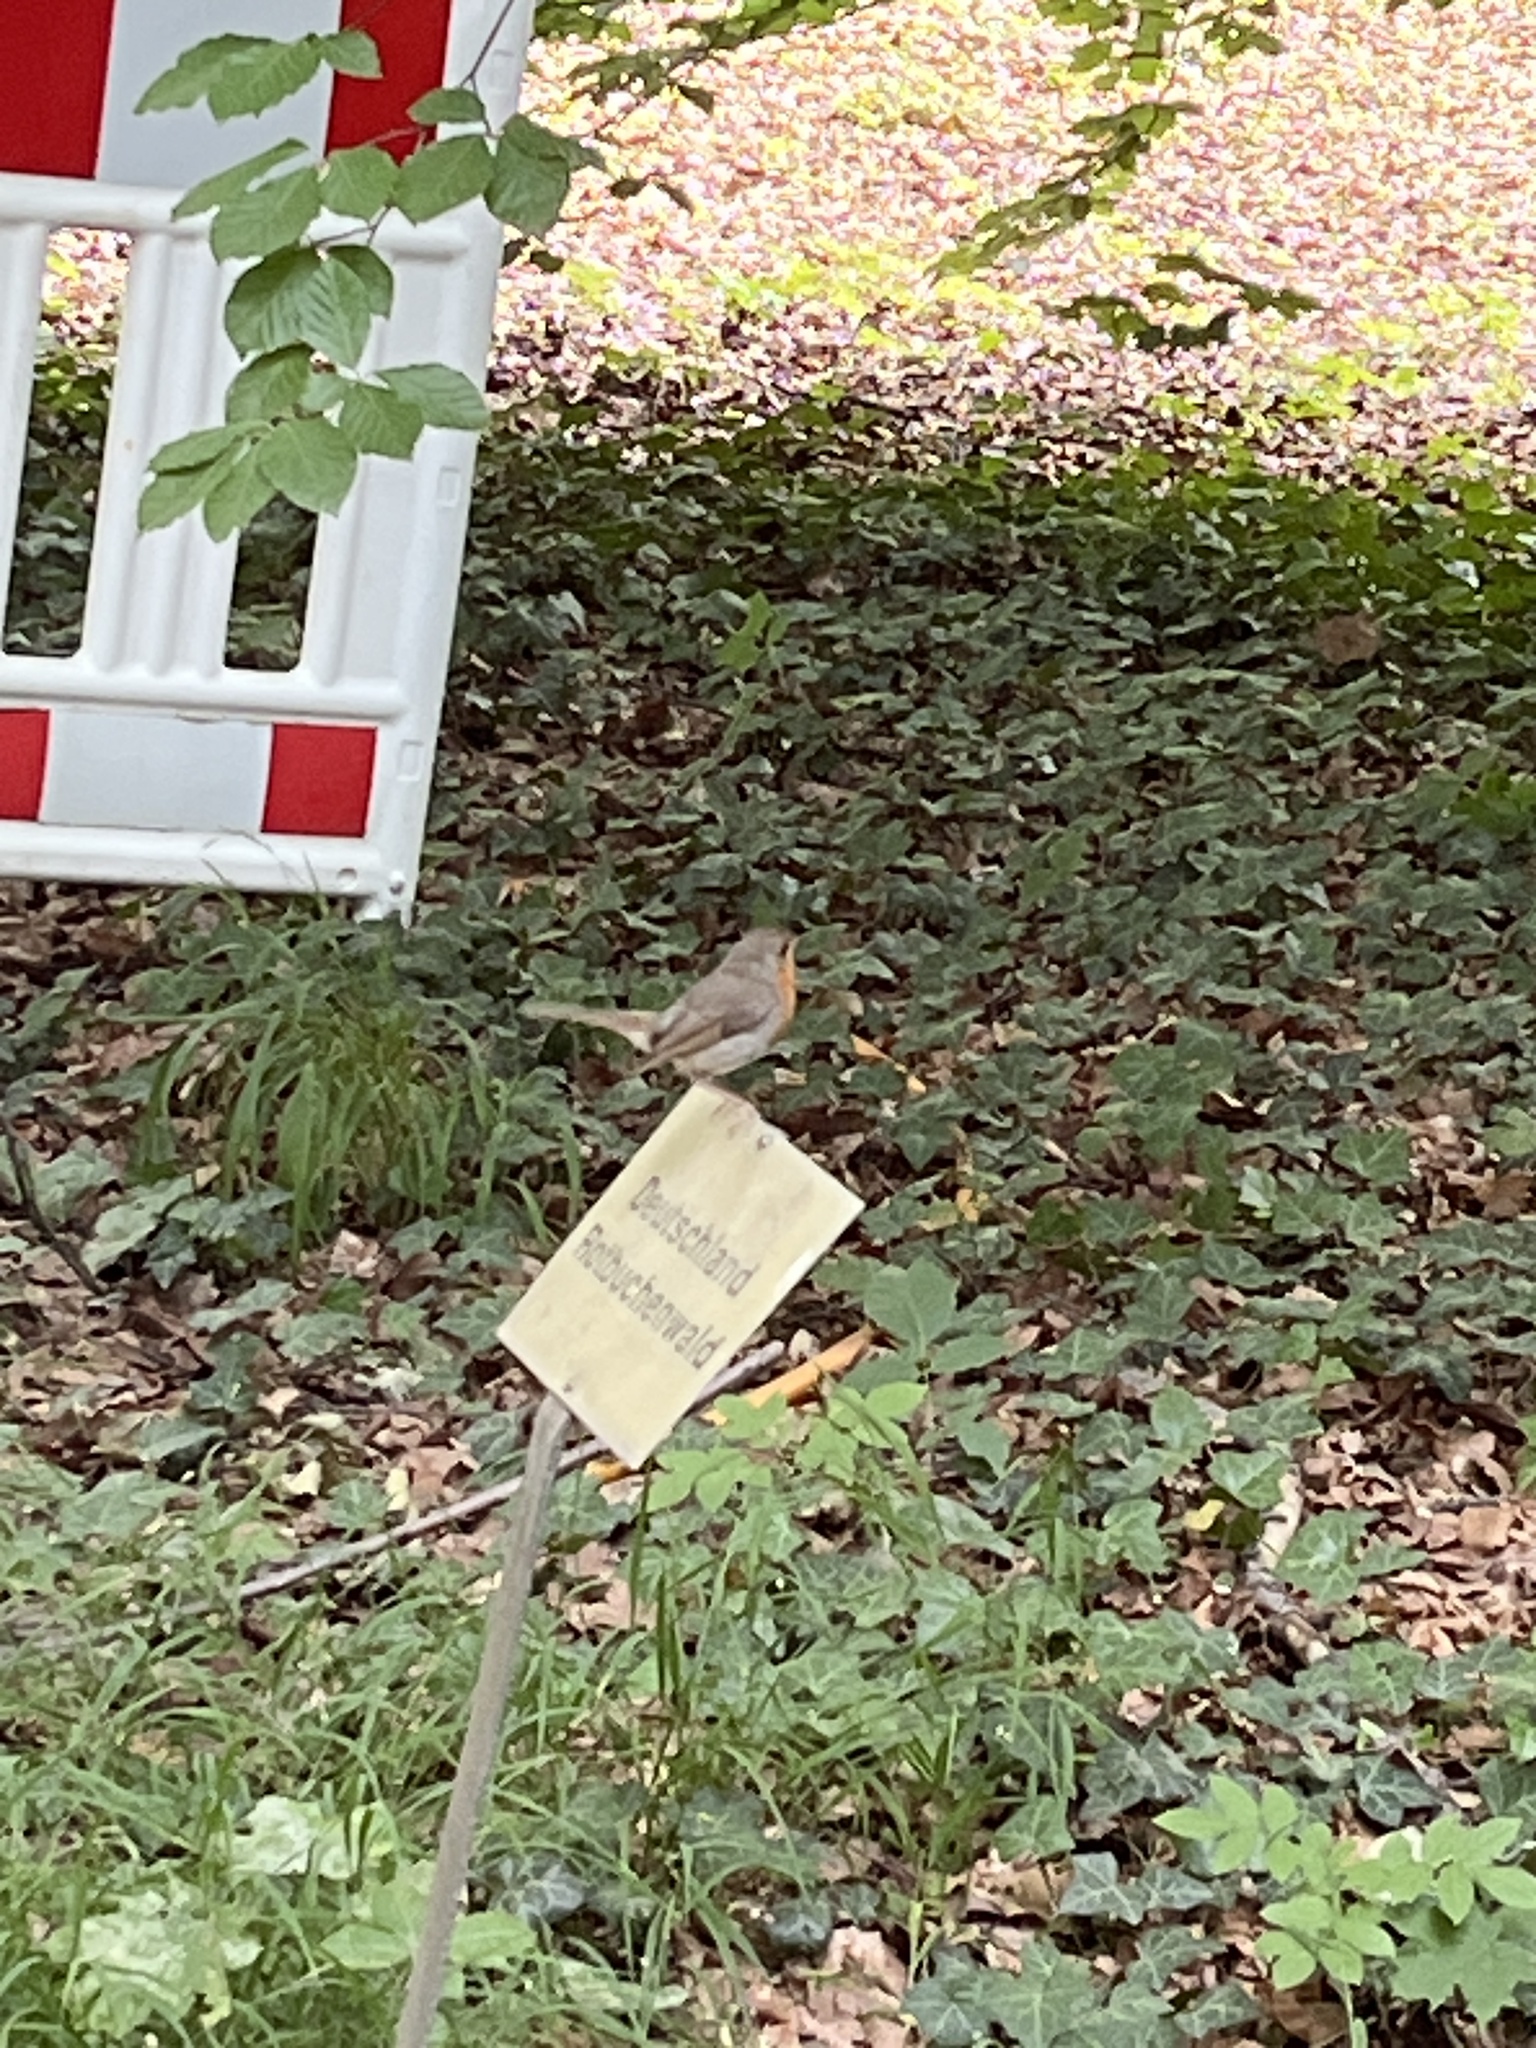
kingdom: Animalia
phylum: Chordata
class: Aves
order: Passeriformes
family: Muscicapidae
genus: Erithacus
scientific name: Erithacus rubecula
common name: European robin
